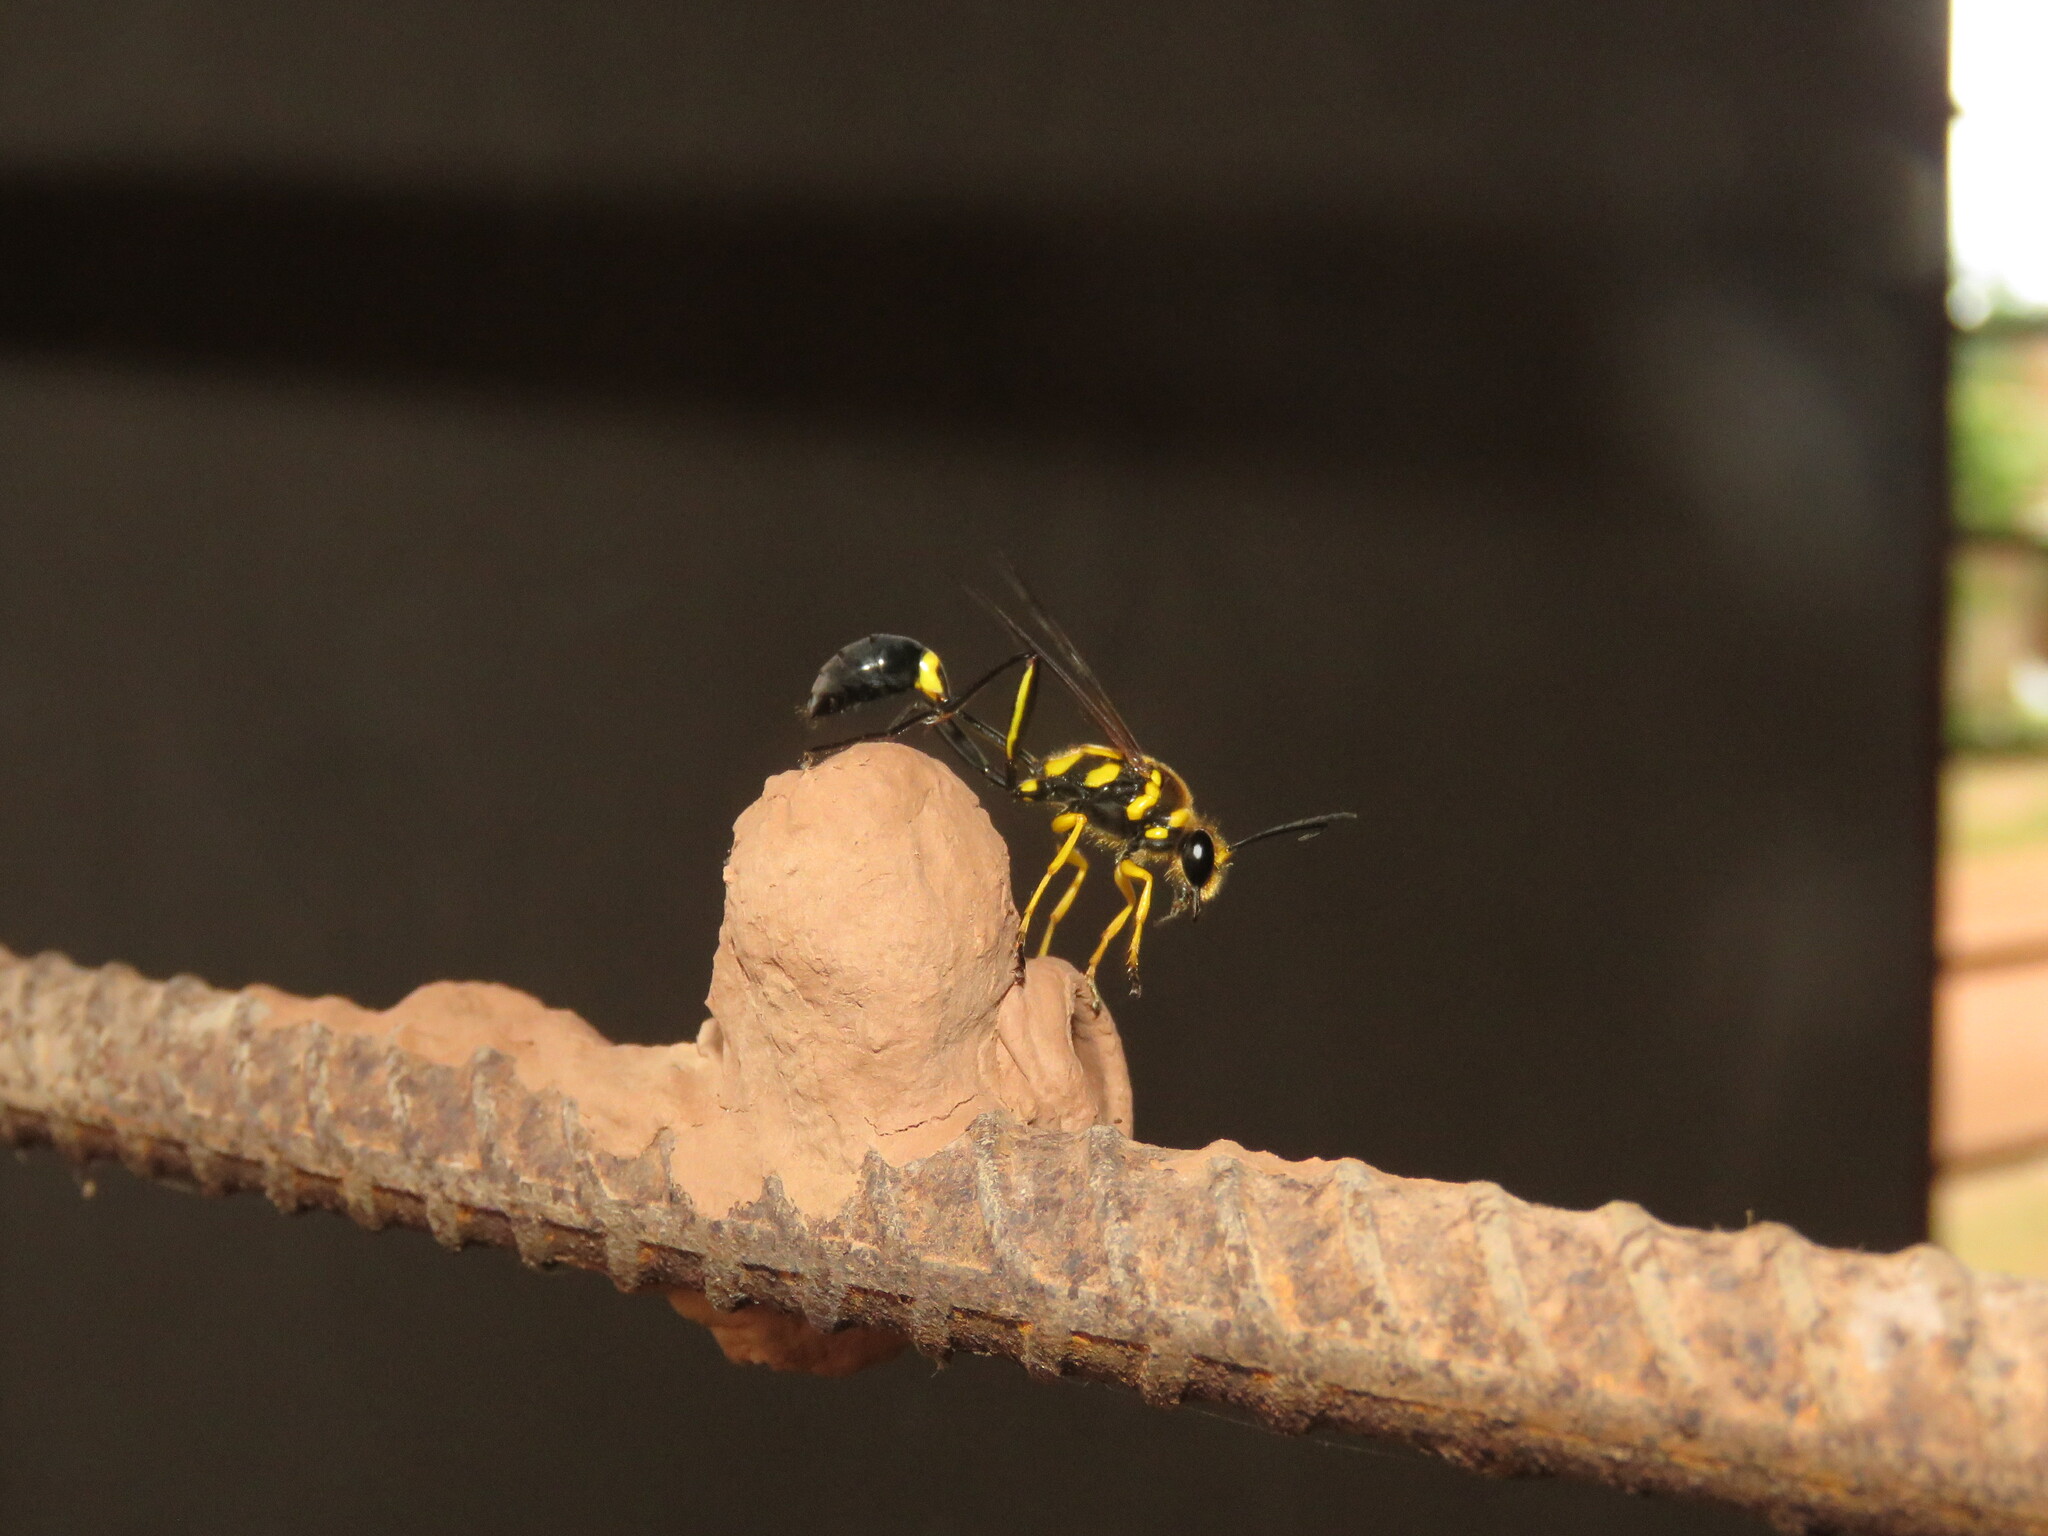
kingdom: Animalia
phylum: Arthropoda
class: Insecta
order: Hymenoptera
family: Sphecidae
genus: Sceliphron
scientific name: Sceliphron fistularium
